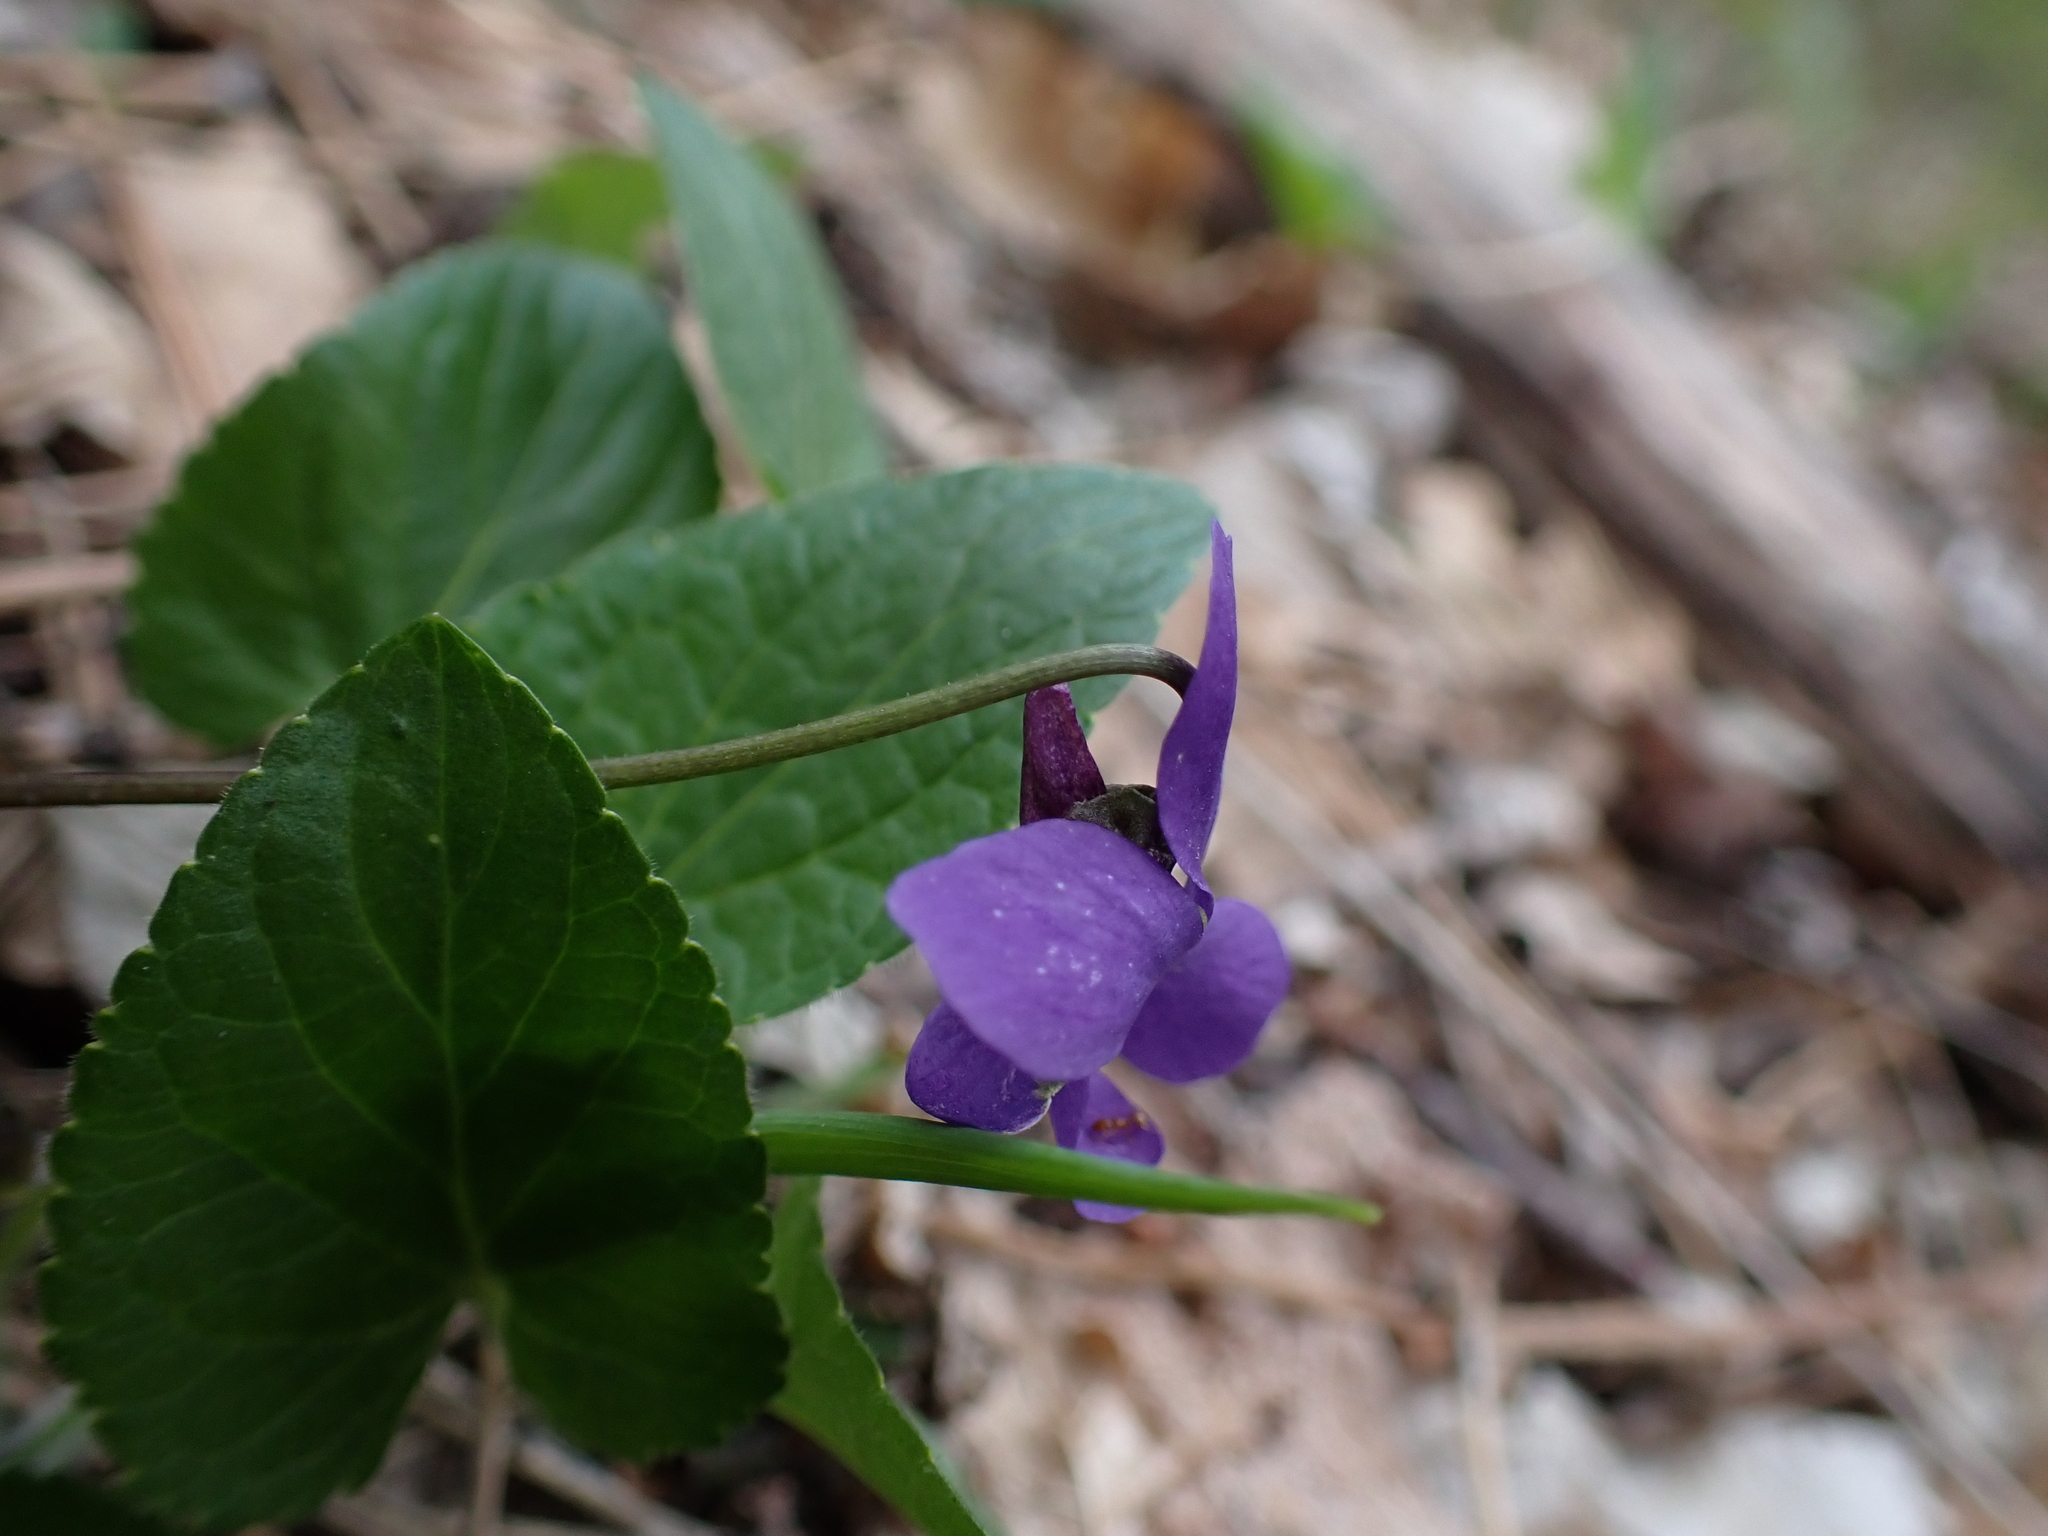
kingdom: Plantae
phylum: Tracheophyta
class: Magnoliopsida
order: Malpighiales
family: Violaceae
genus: Viola
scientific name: Viola hirta
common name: Hairy violet
